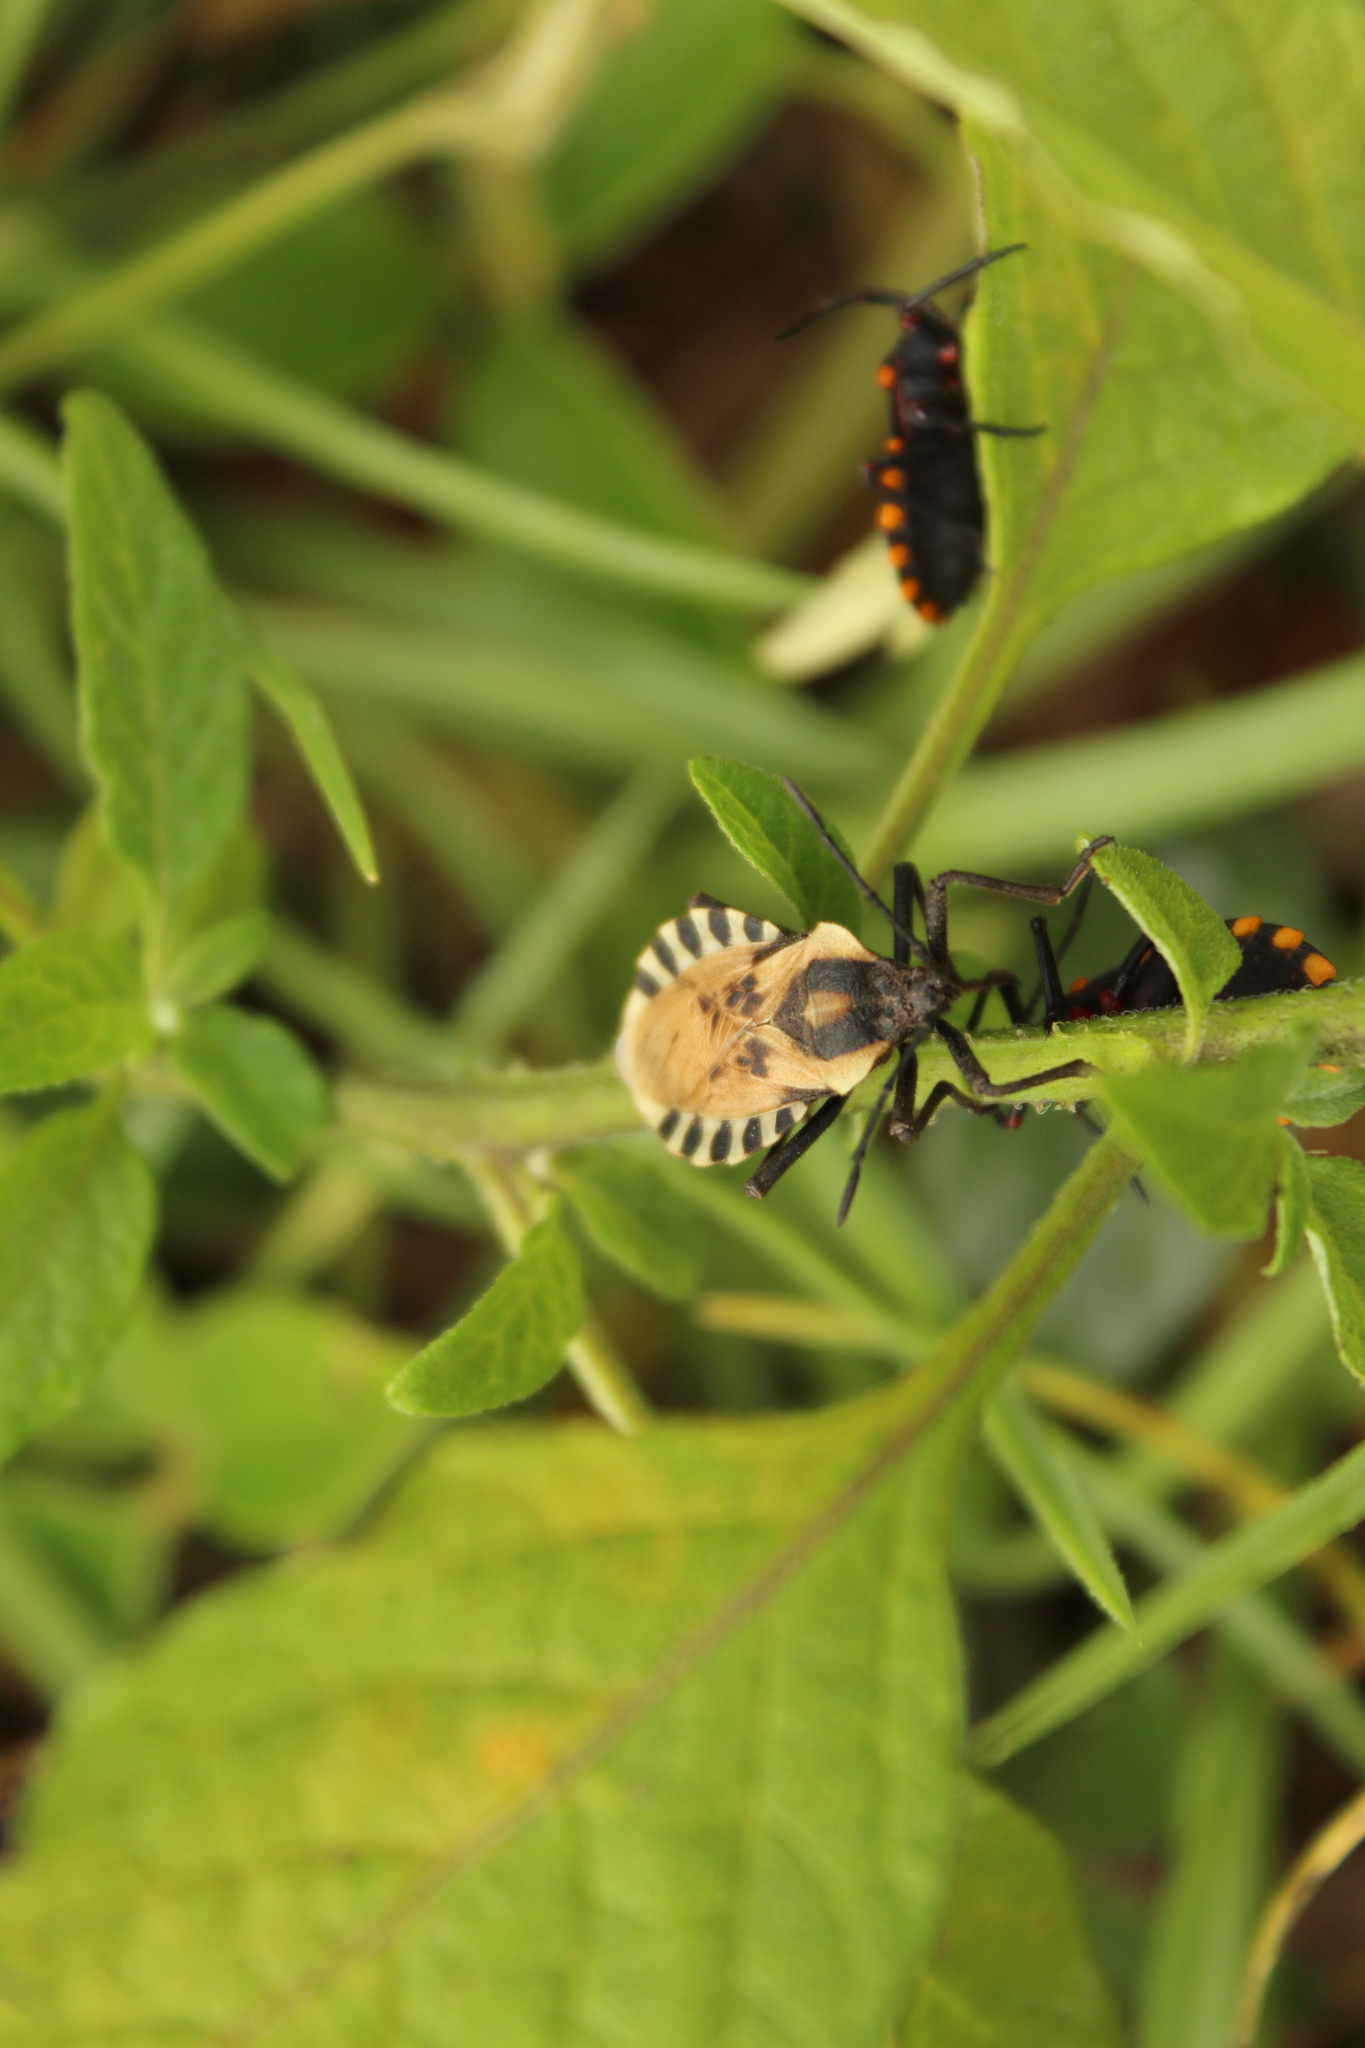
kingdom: Animalia
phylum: Arthropoda
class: Insecta
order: Hemiptera
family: Coreidae
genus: Spartocera
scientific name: Spartocera alternata
